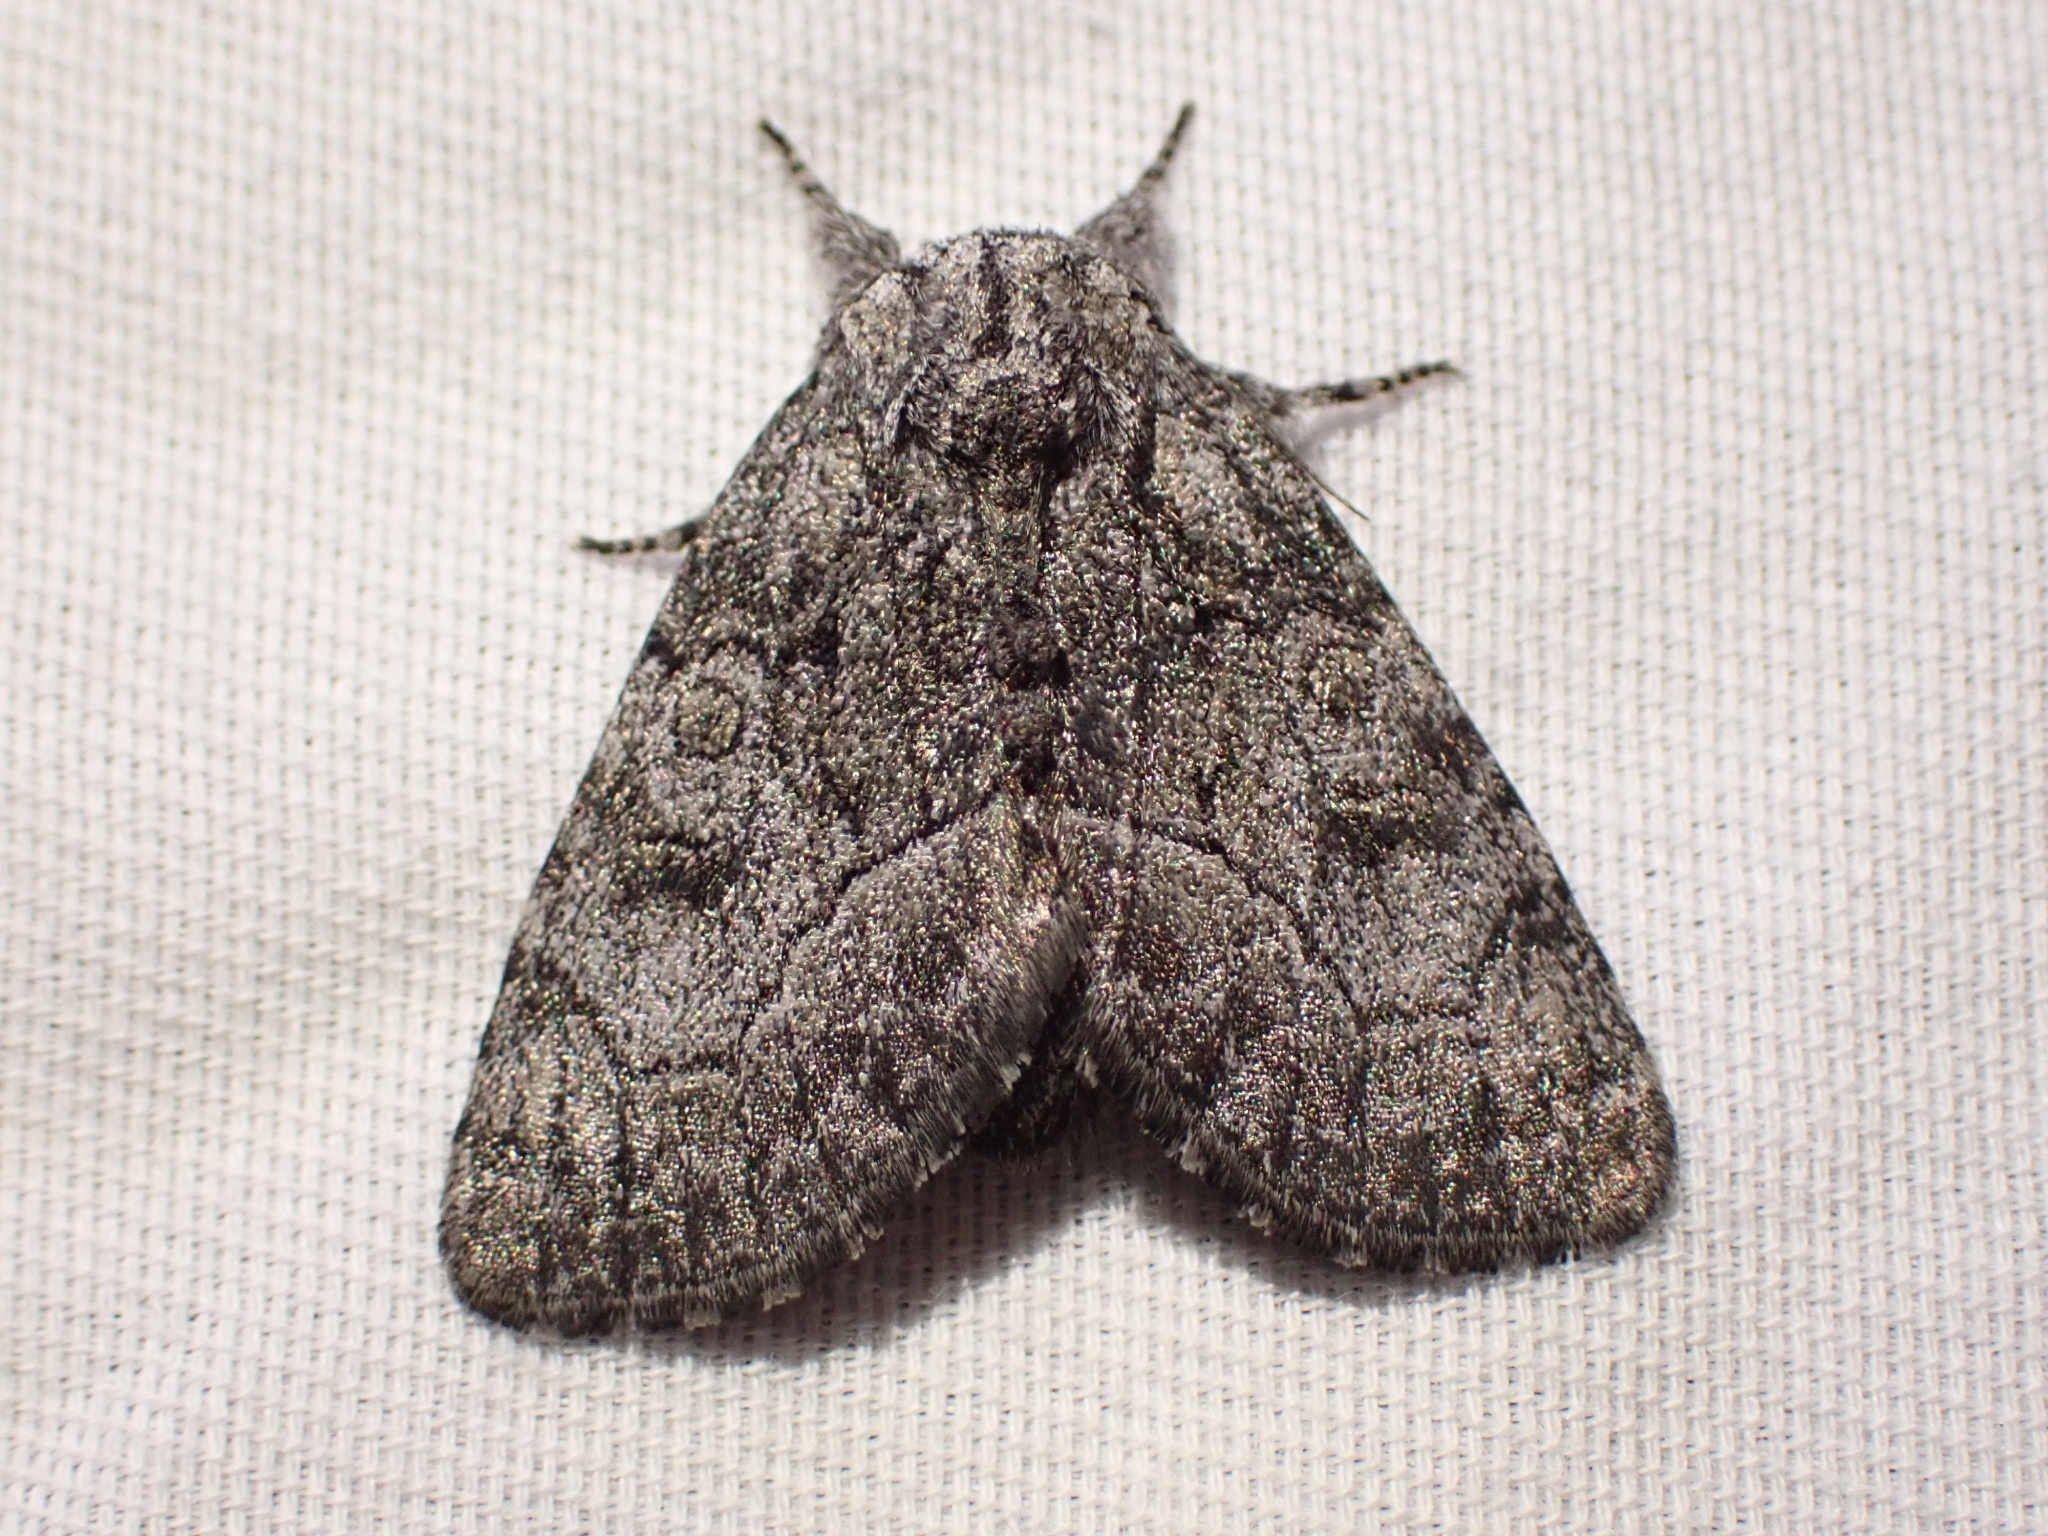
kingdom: Animalia
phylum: Arthropoda
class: Insecta
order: Lepidoptera
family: Noctuidae
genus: Raphia
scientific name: Raphia frater
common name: Brother
